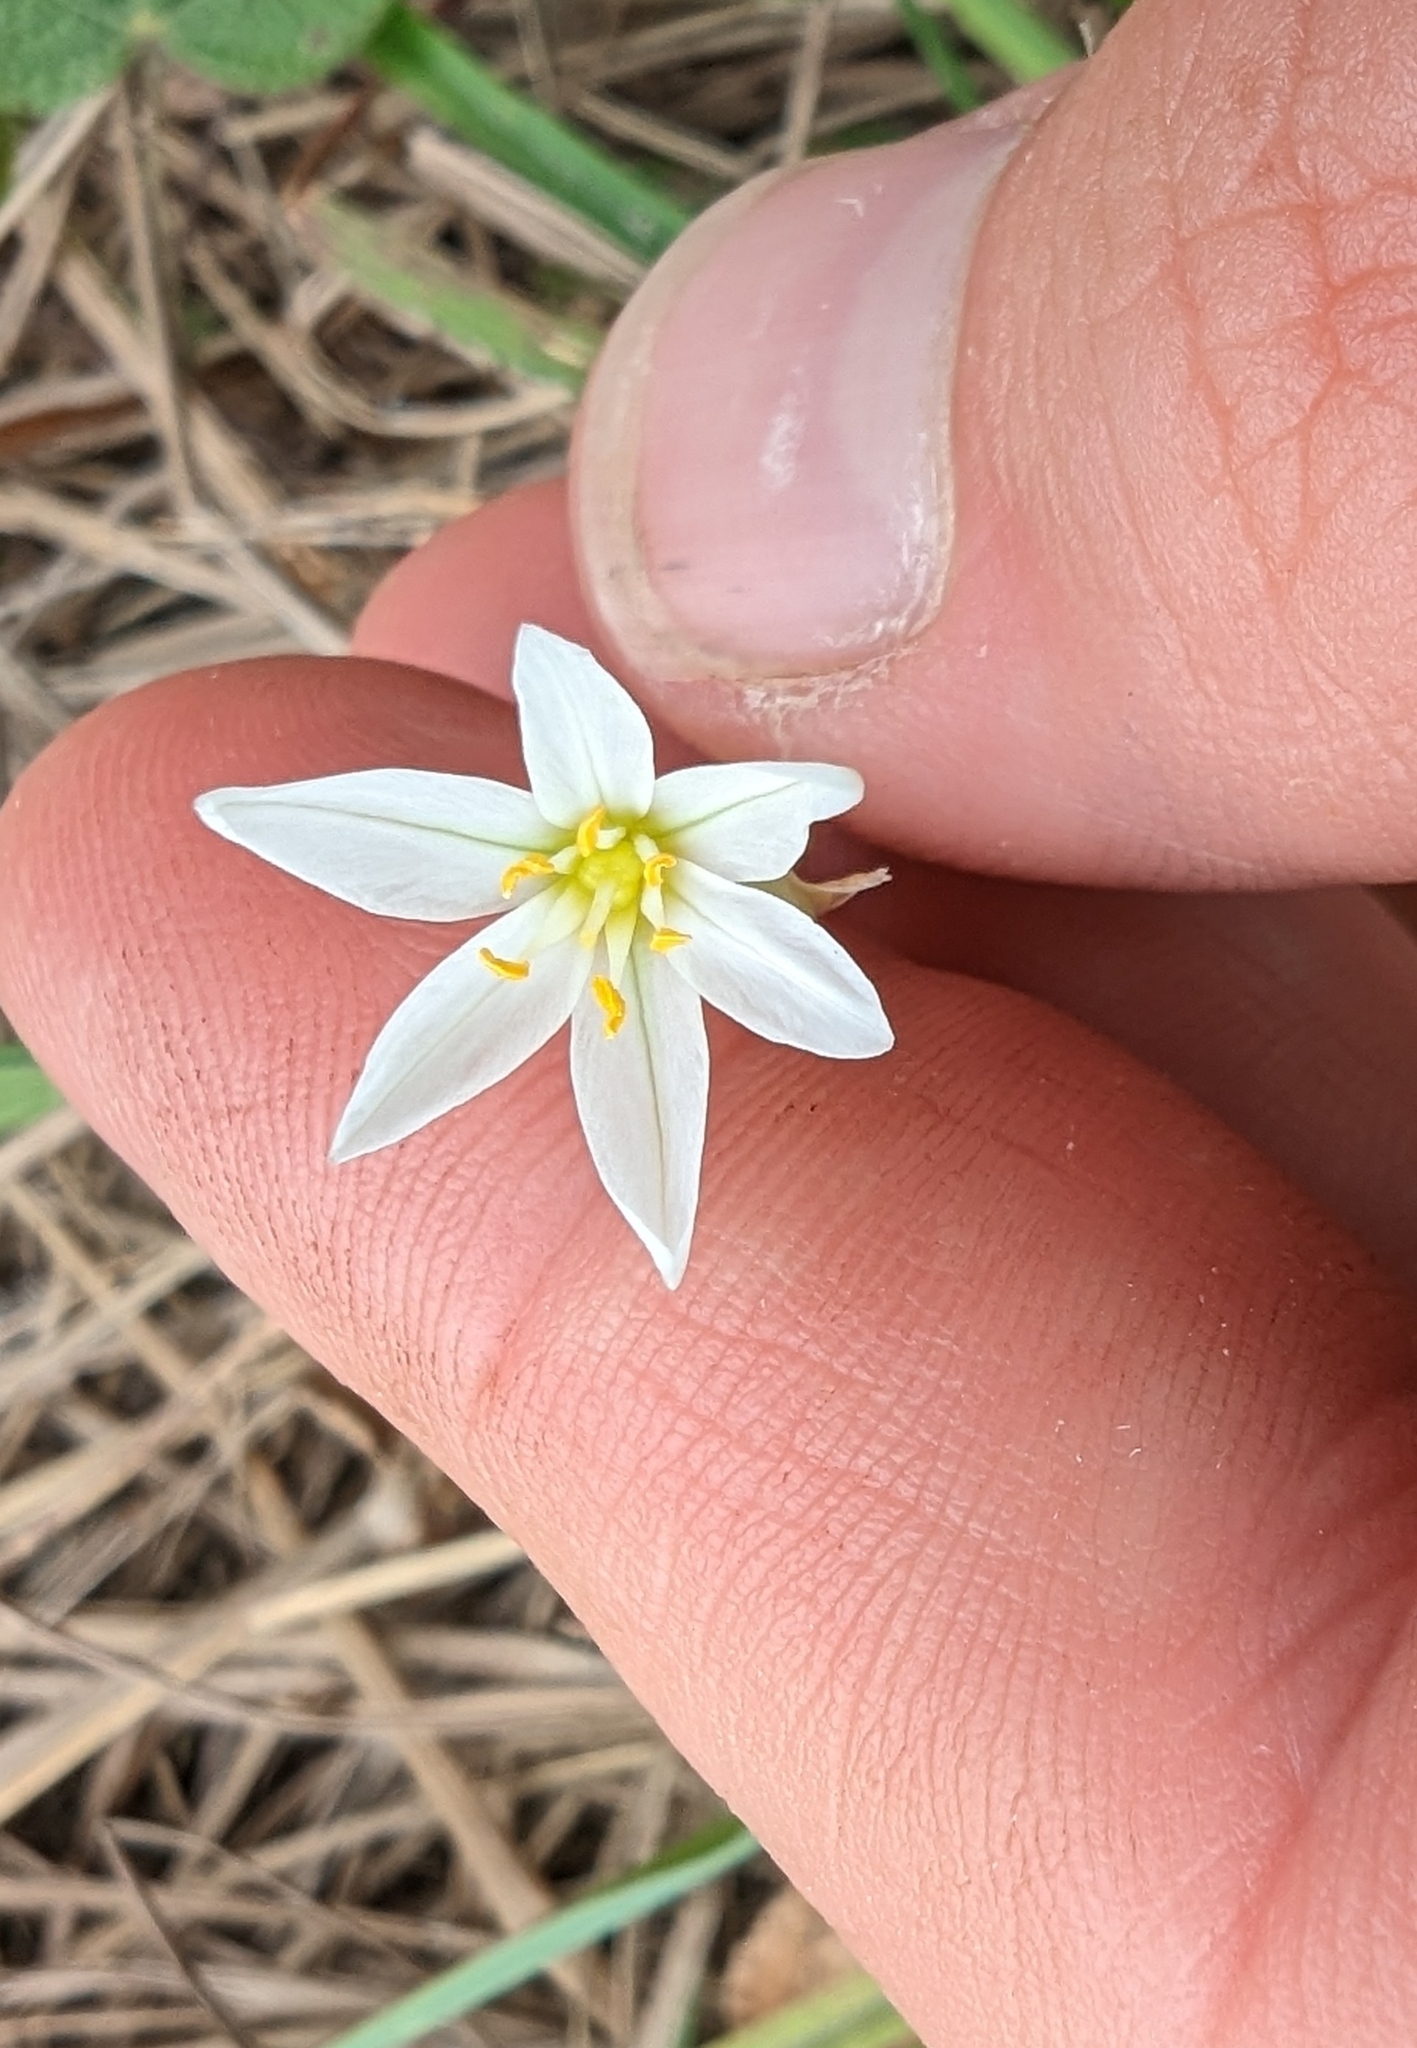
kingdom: Plantae
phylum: Tracheophyta
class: Liliopsida
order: Asparagales
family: Amaryllidaceae
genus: Nothoscordum
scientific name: Nothoscordum bivalve
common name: Crow-poison
